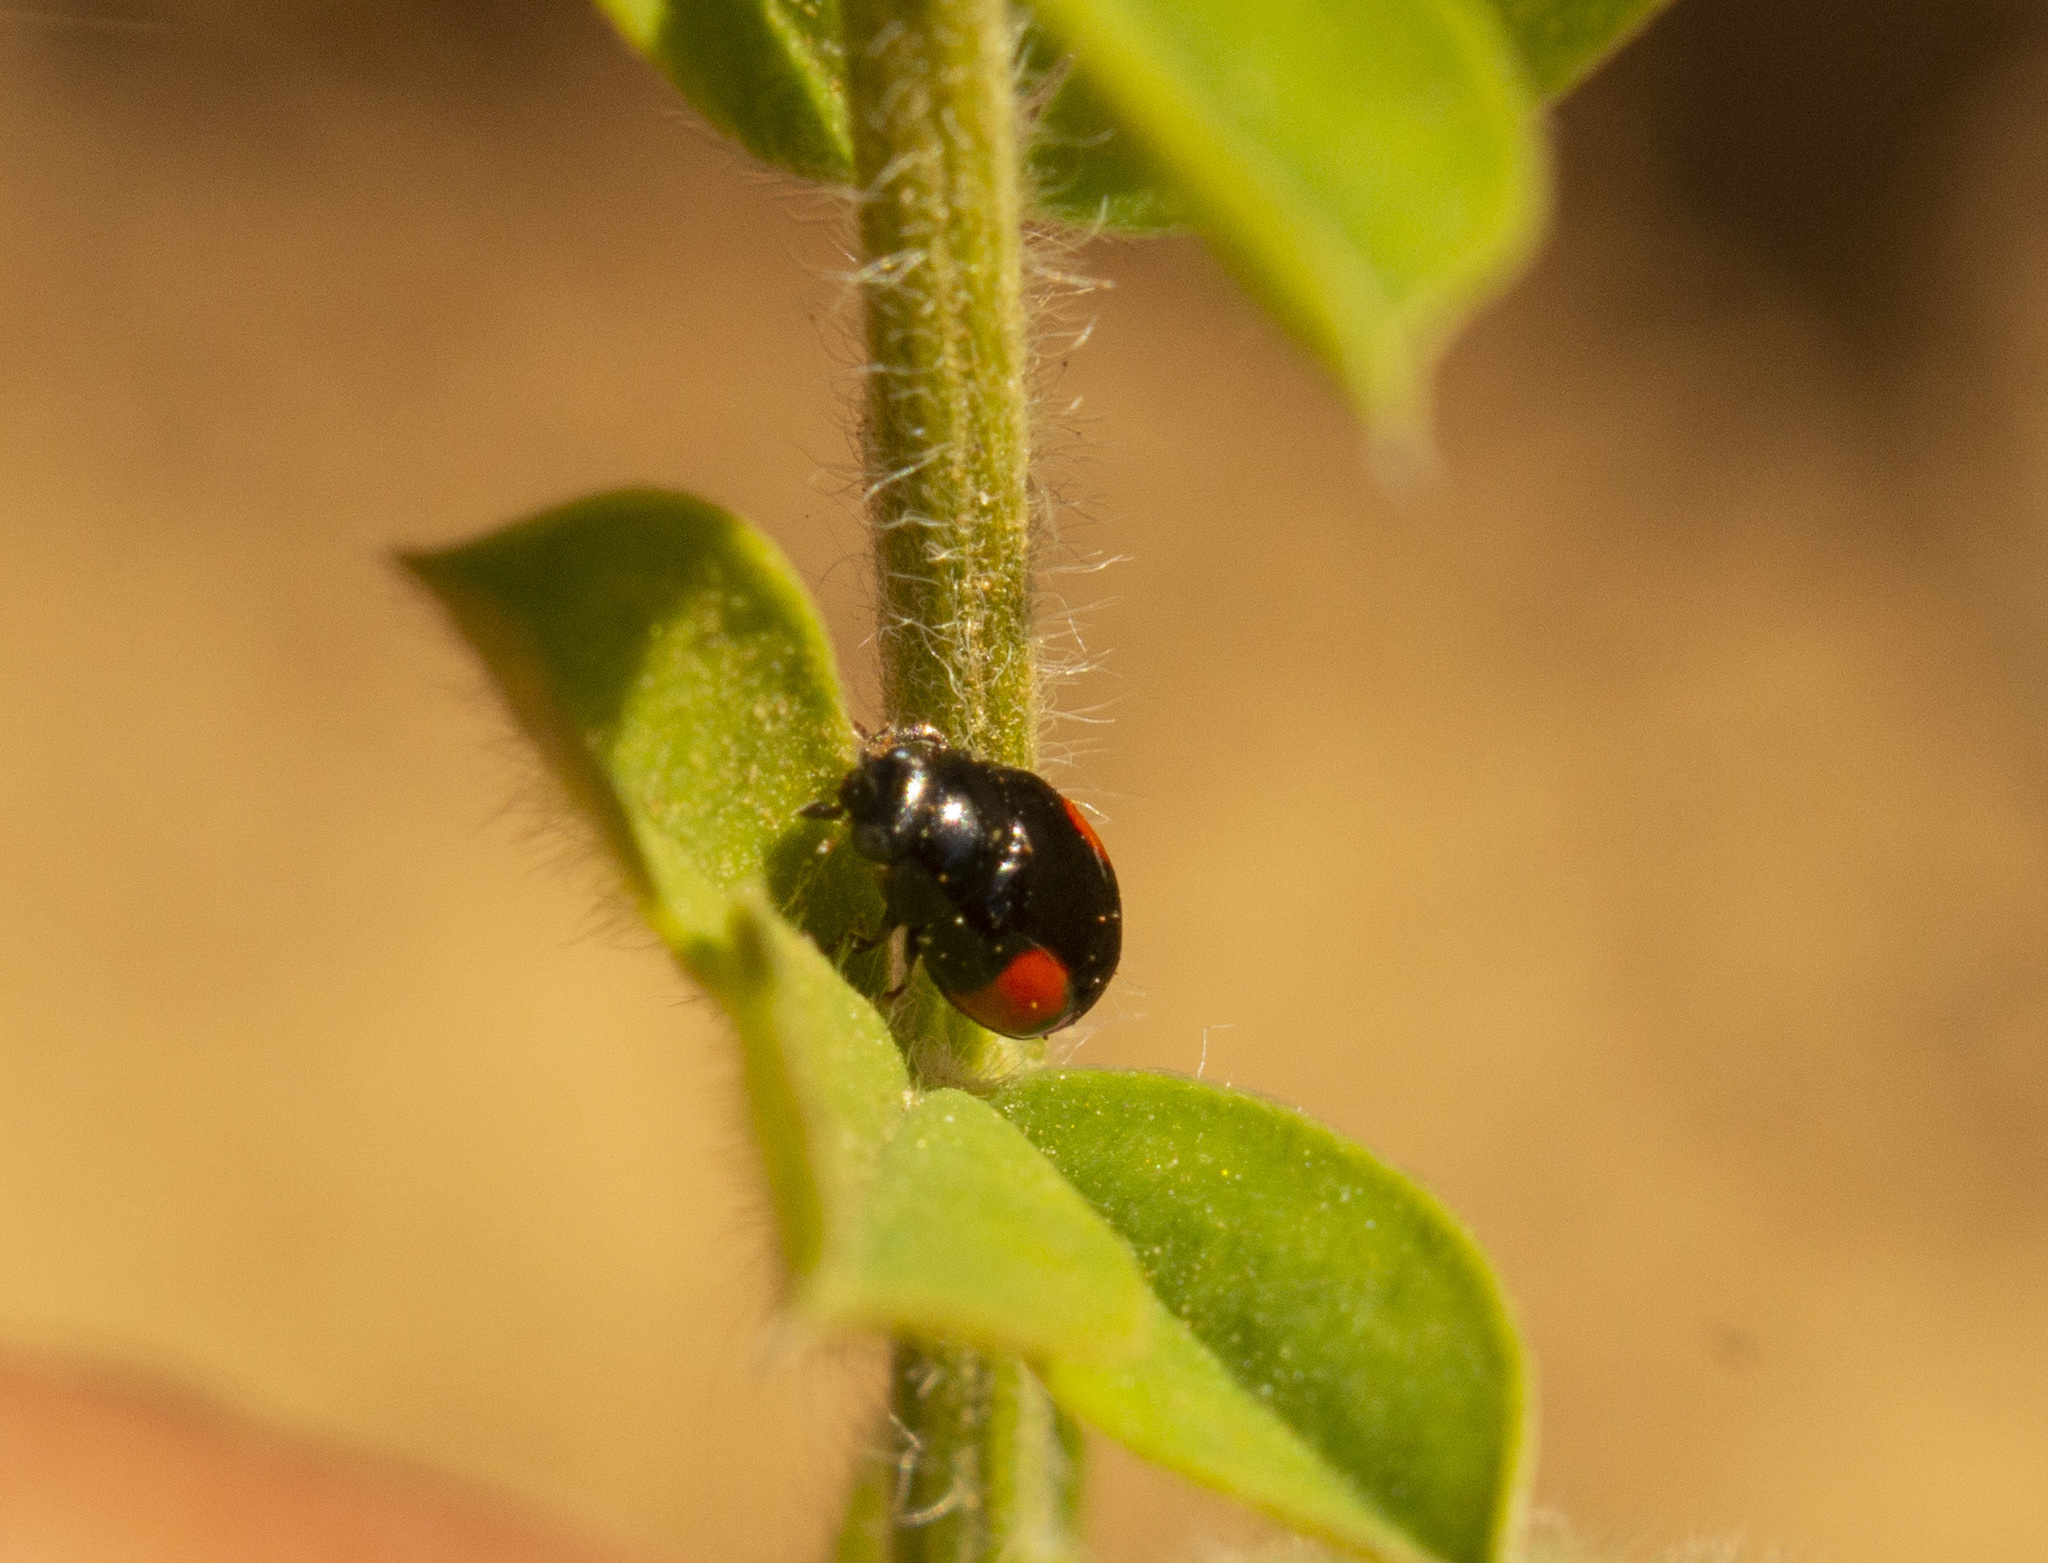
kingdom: Animalia
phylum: Arthropoda
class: Insecta
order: Coleoptera
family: Coccinellidae
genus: Hyperaspis
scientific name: Hyperaspis
